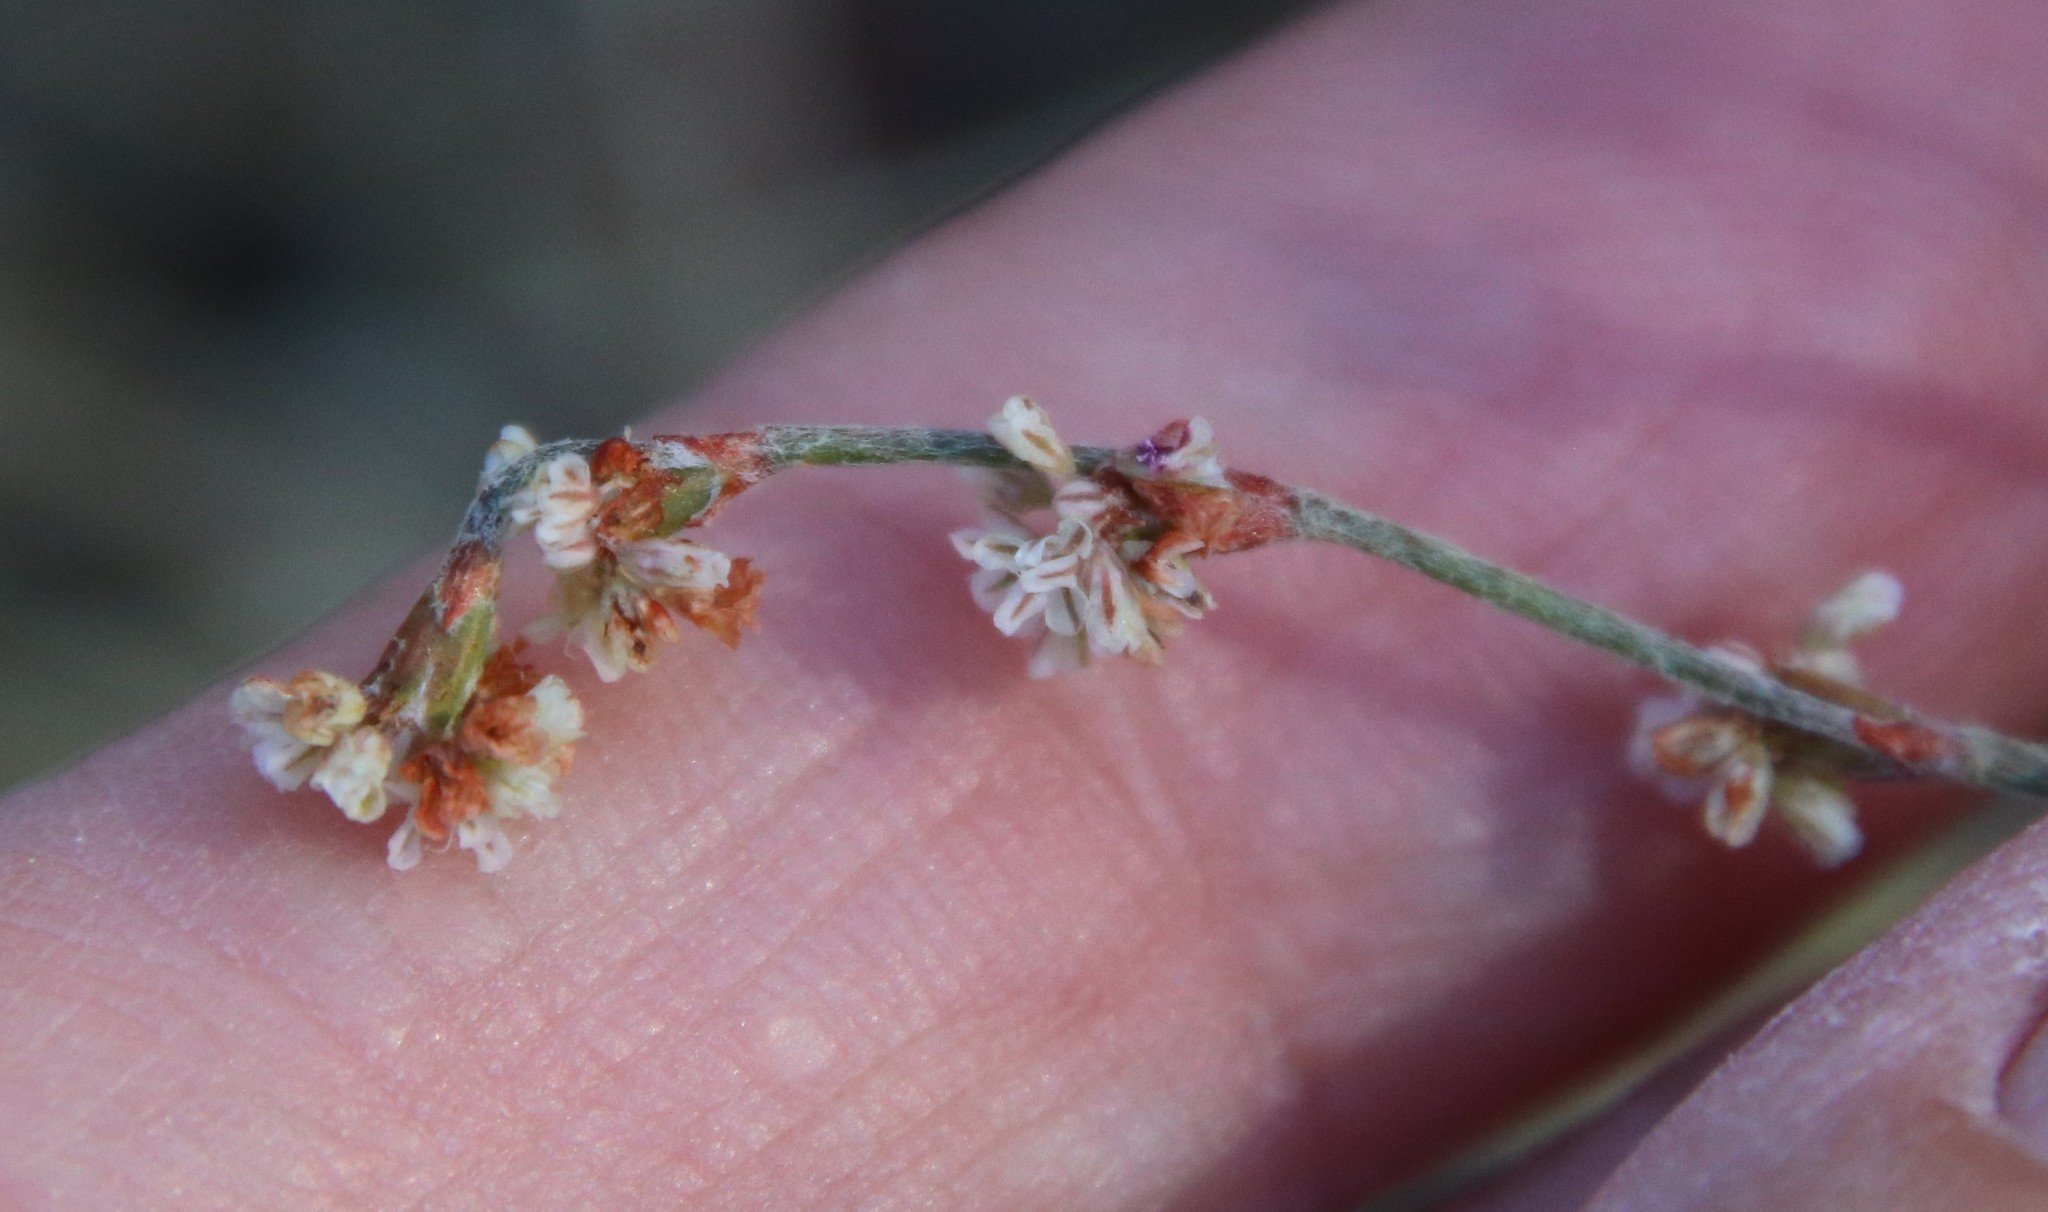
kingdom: Plantae
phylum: Tracheophyta
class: Magnoliopsida
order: Caryophyllales
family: Polygonaceae
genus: Eriogonum
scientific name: Eriogonum gracile
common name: Slender woolly buckwheat
